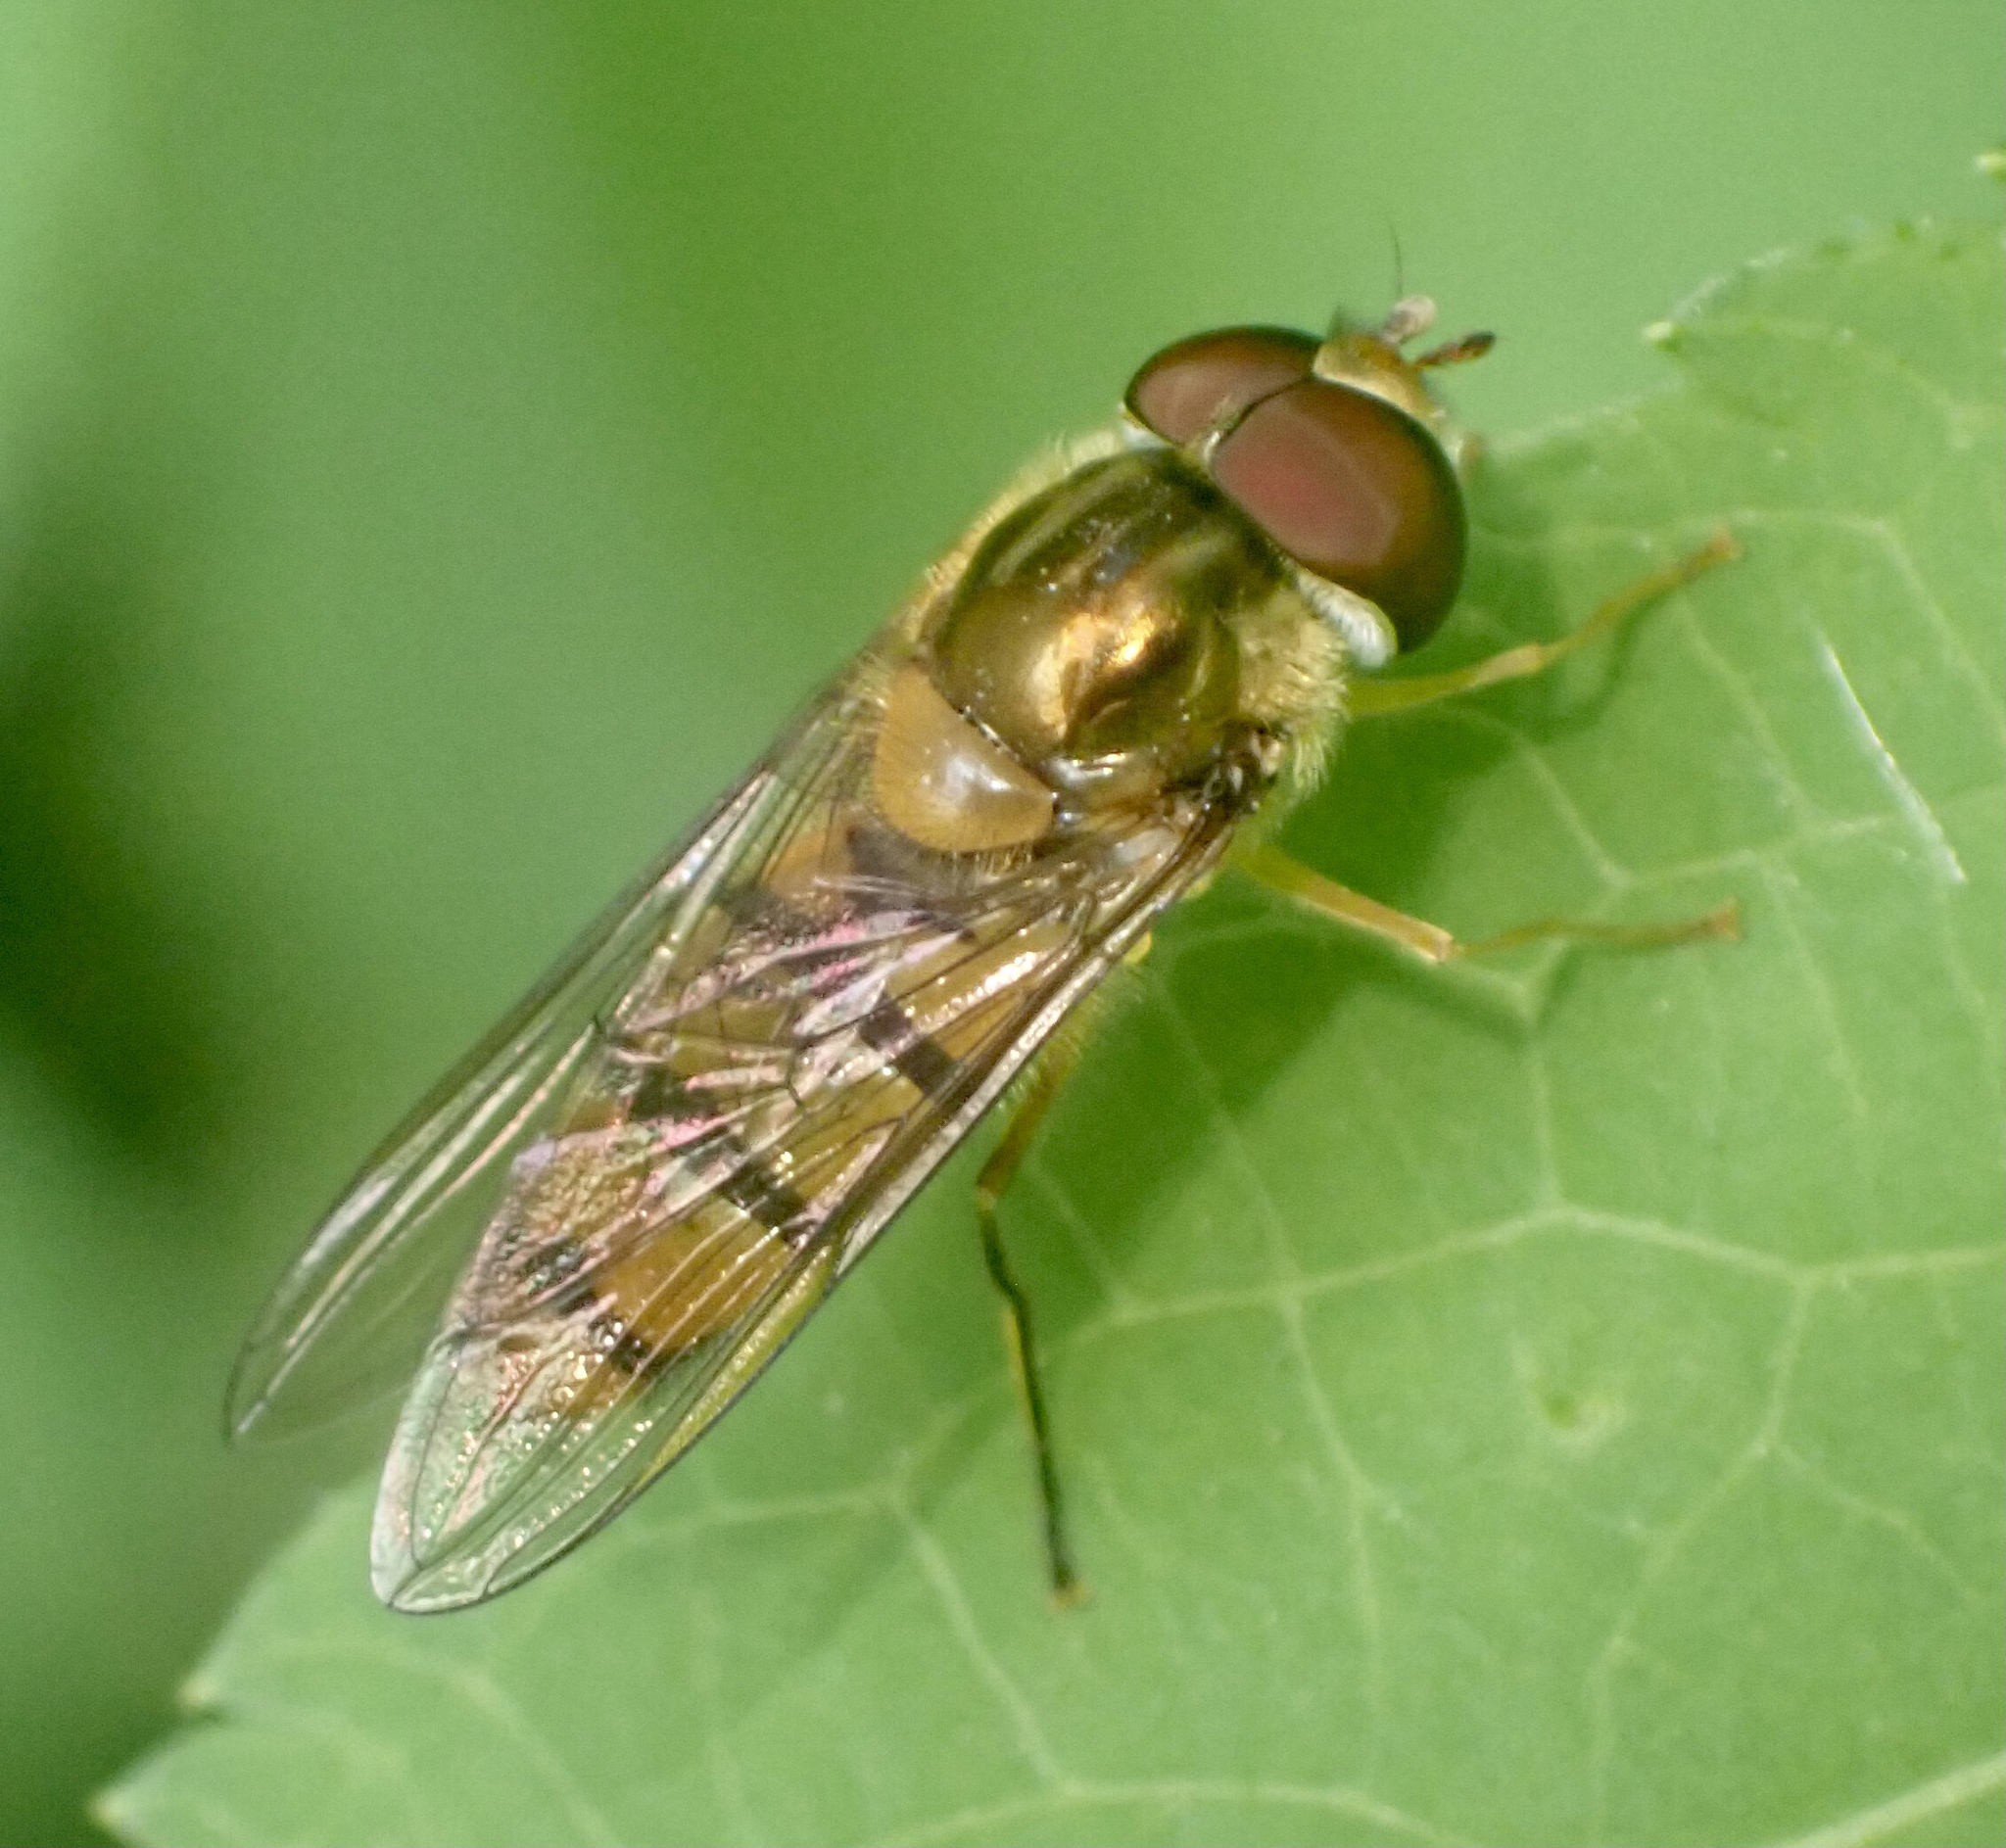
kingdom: Animalia
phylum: Arthropoda
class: Insecta
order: Diptera
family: Syrphidae
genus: Episyrphus
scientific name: Episyrphus balteatus
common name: Marmalade hoverfly
